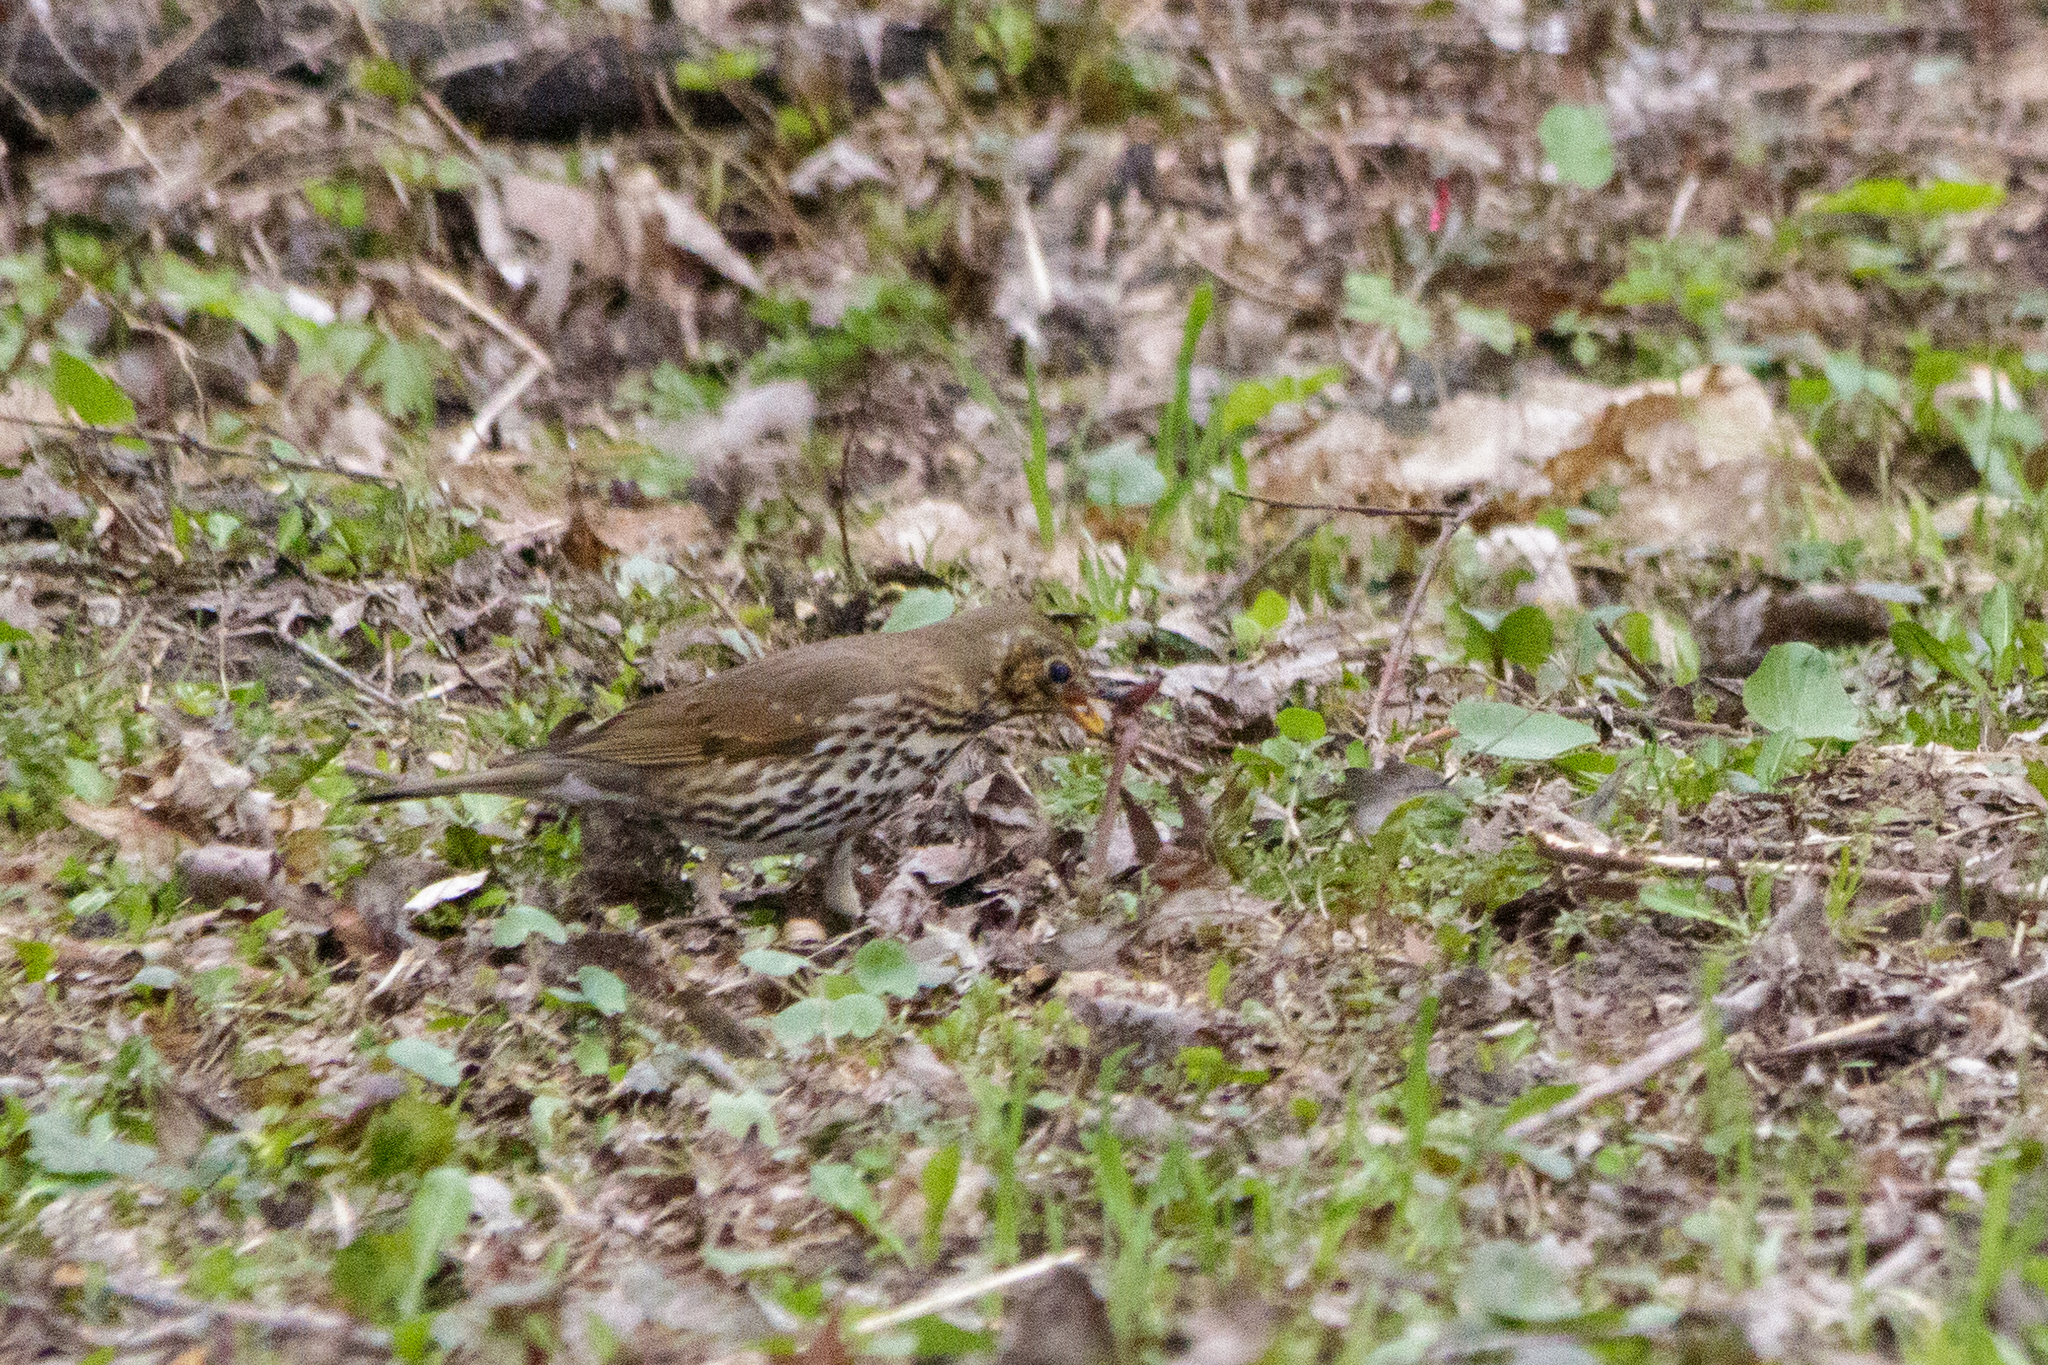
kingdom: Animalia
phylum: Chordata
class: Aves
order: Passeriformes
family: Turdidae
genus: Turdus
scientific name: Turdus philomelos
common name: Song thrush
